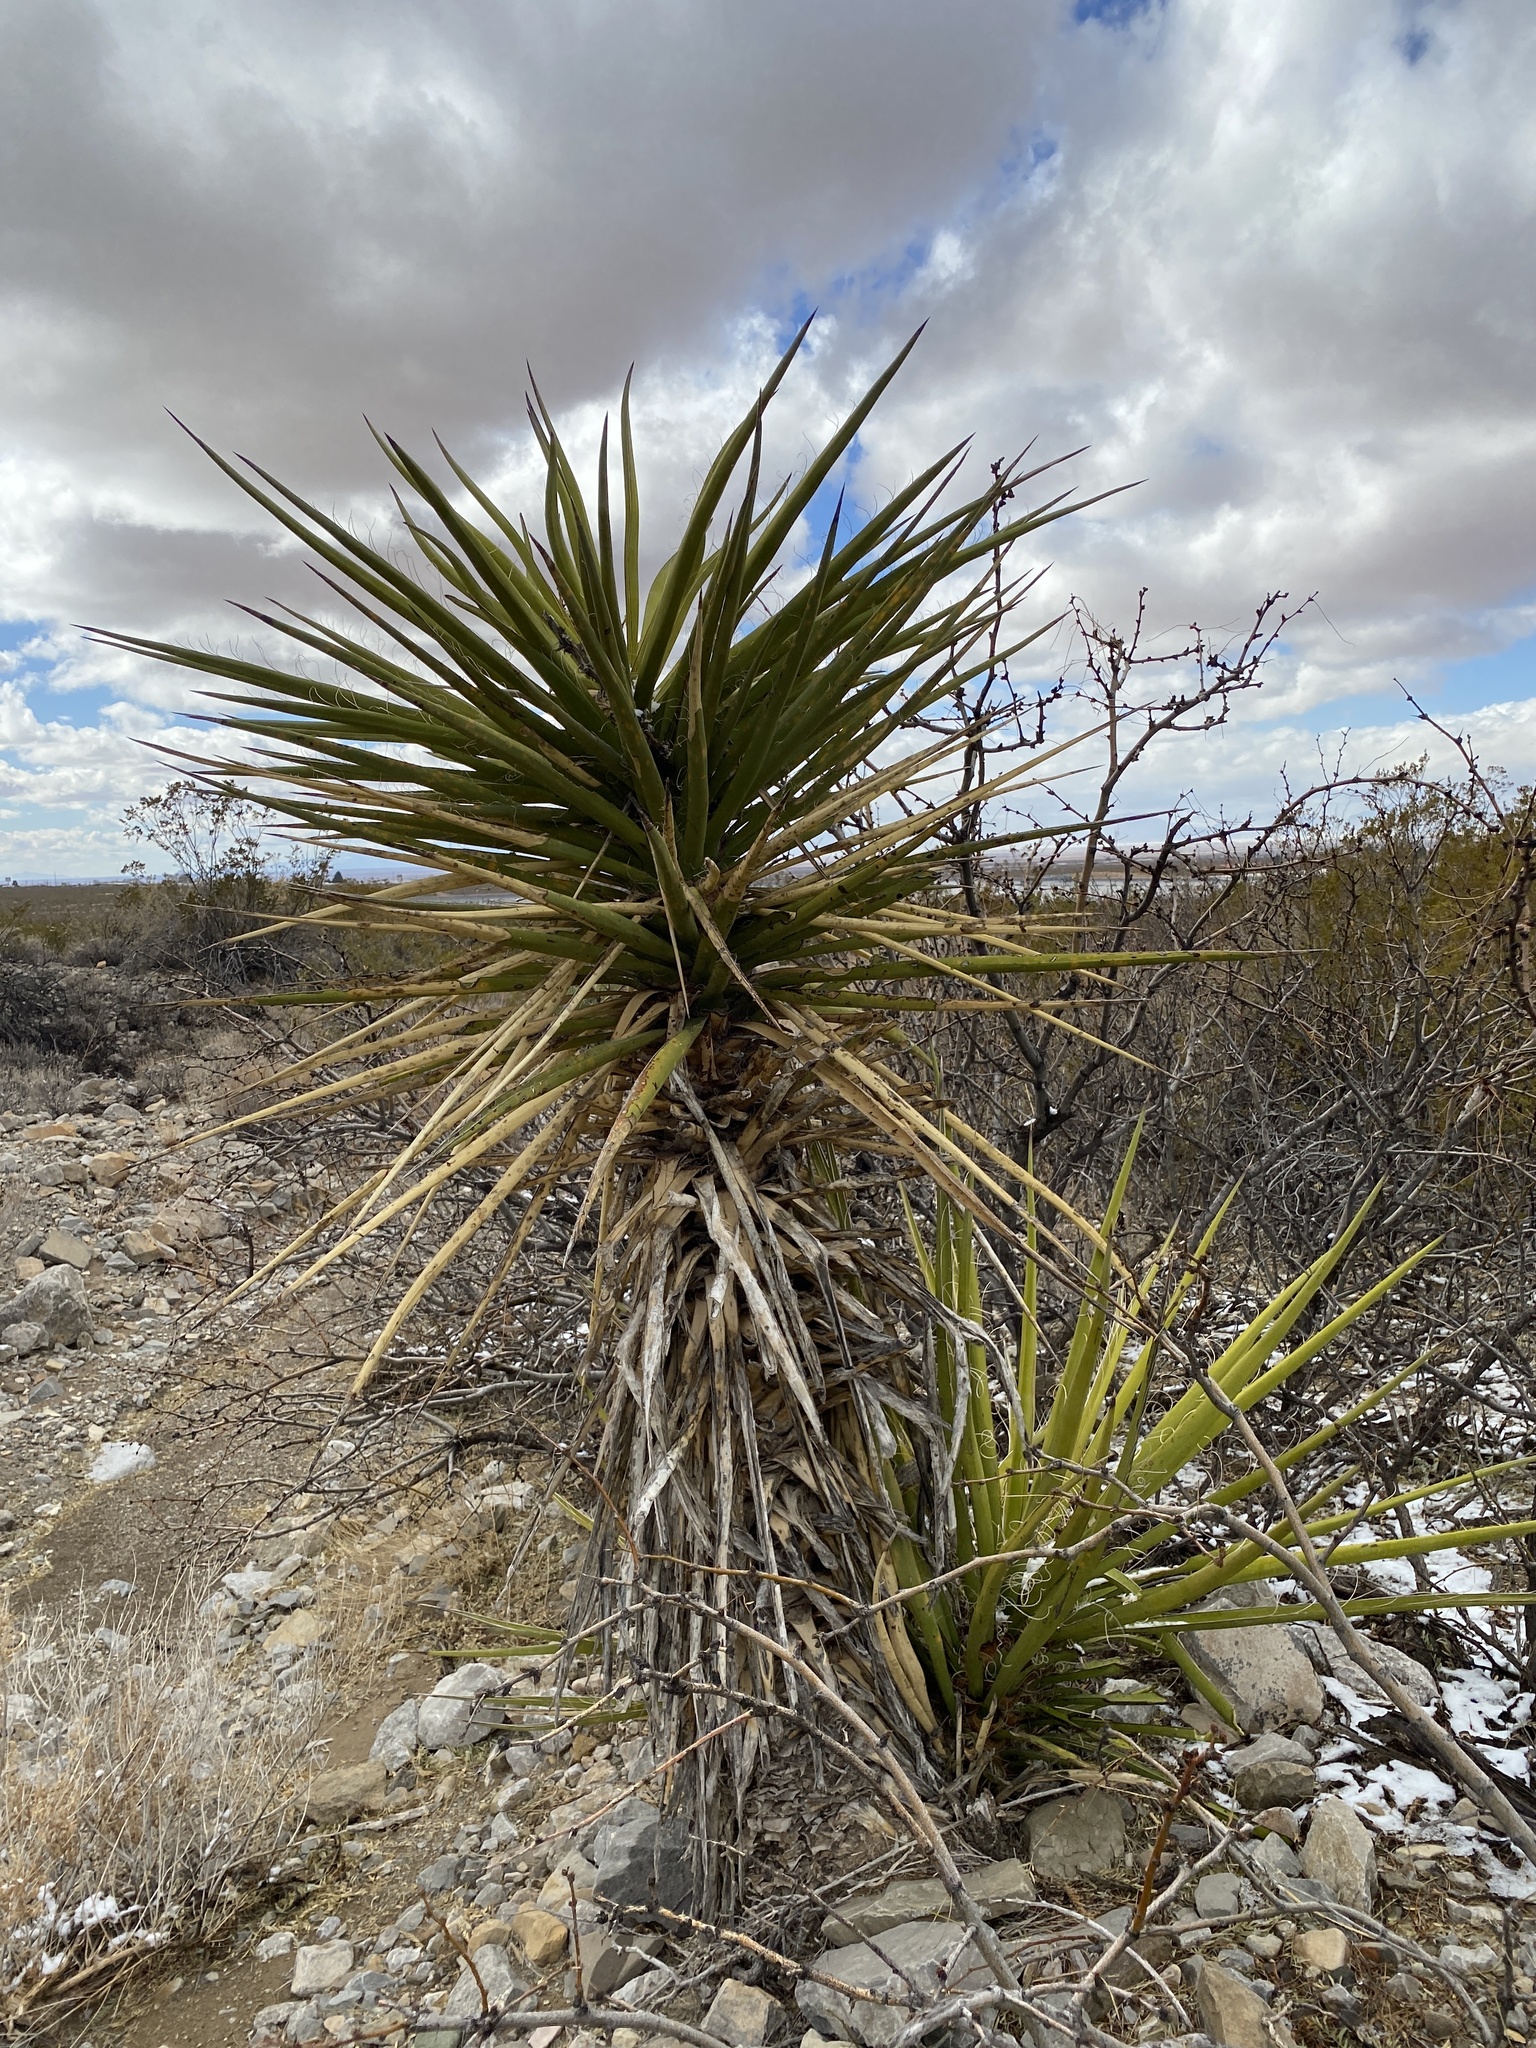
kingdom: Plantae
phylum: Tracheophyta
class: Liliopsida
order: Asparagales
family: Asparagaceae
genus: Yucca
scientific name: Yucca treculiana
